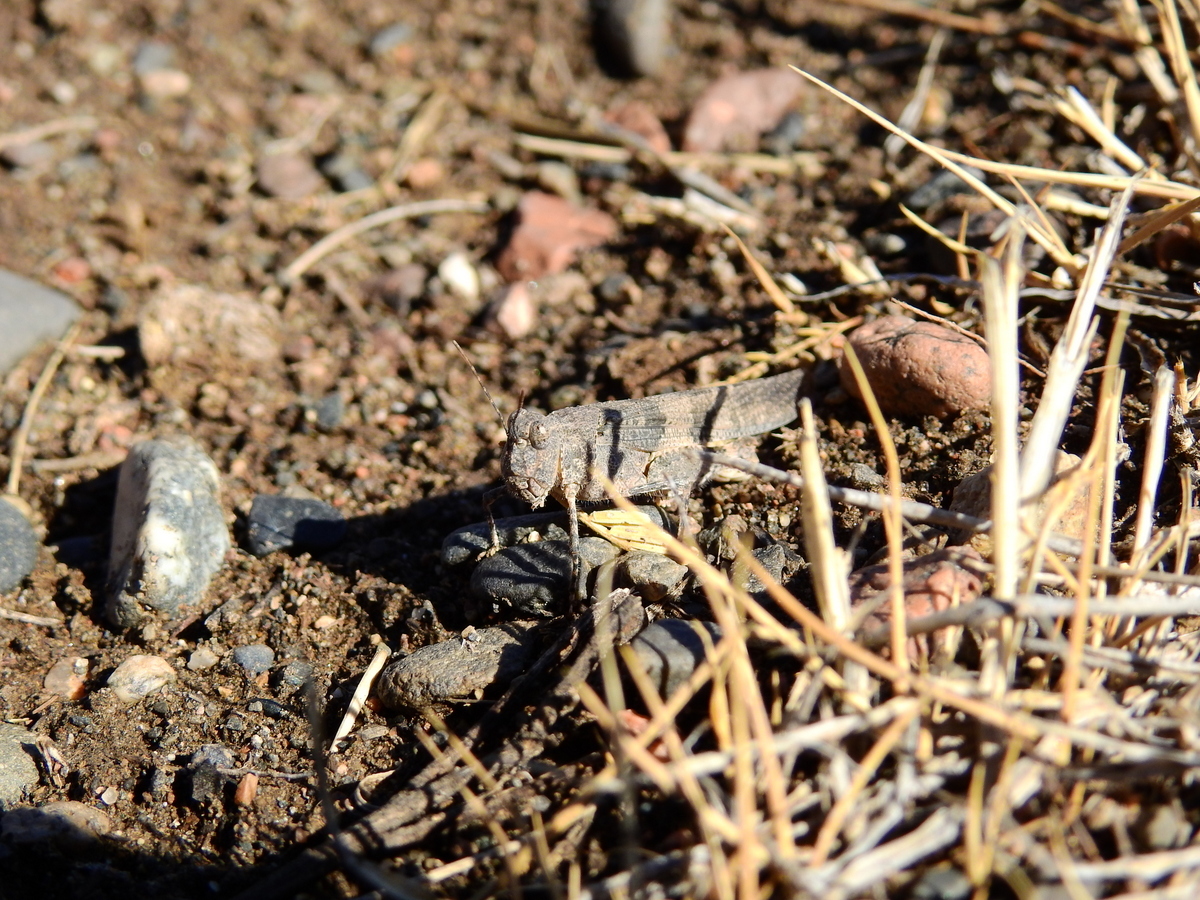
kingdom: Animalia
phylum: Arthropoda
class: Insecta
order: Orthoptera
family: Acrididae
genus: Trimerotropis
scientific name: Trimerotropis pallidipennis
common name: Pallid-winged grasshopper
